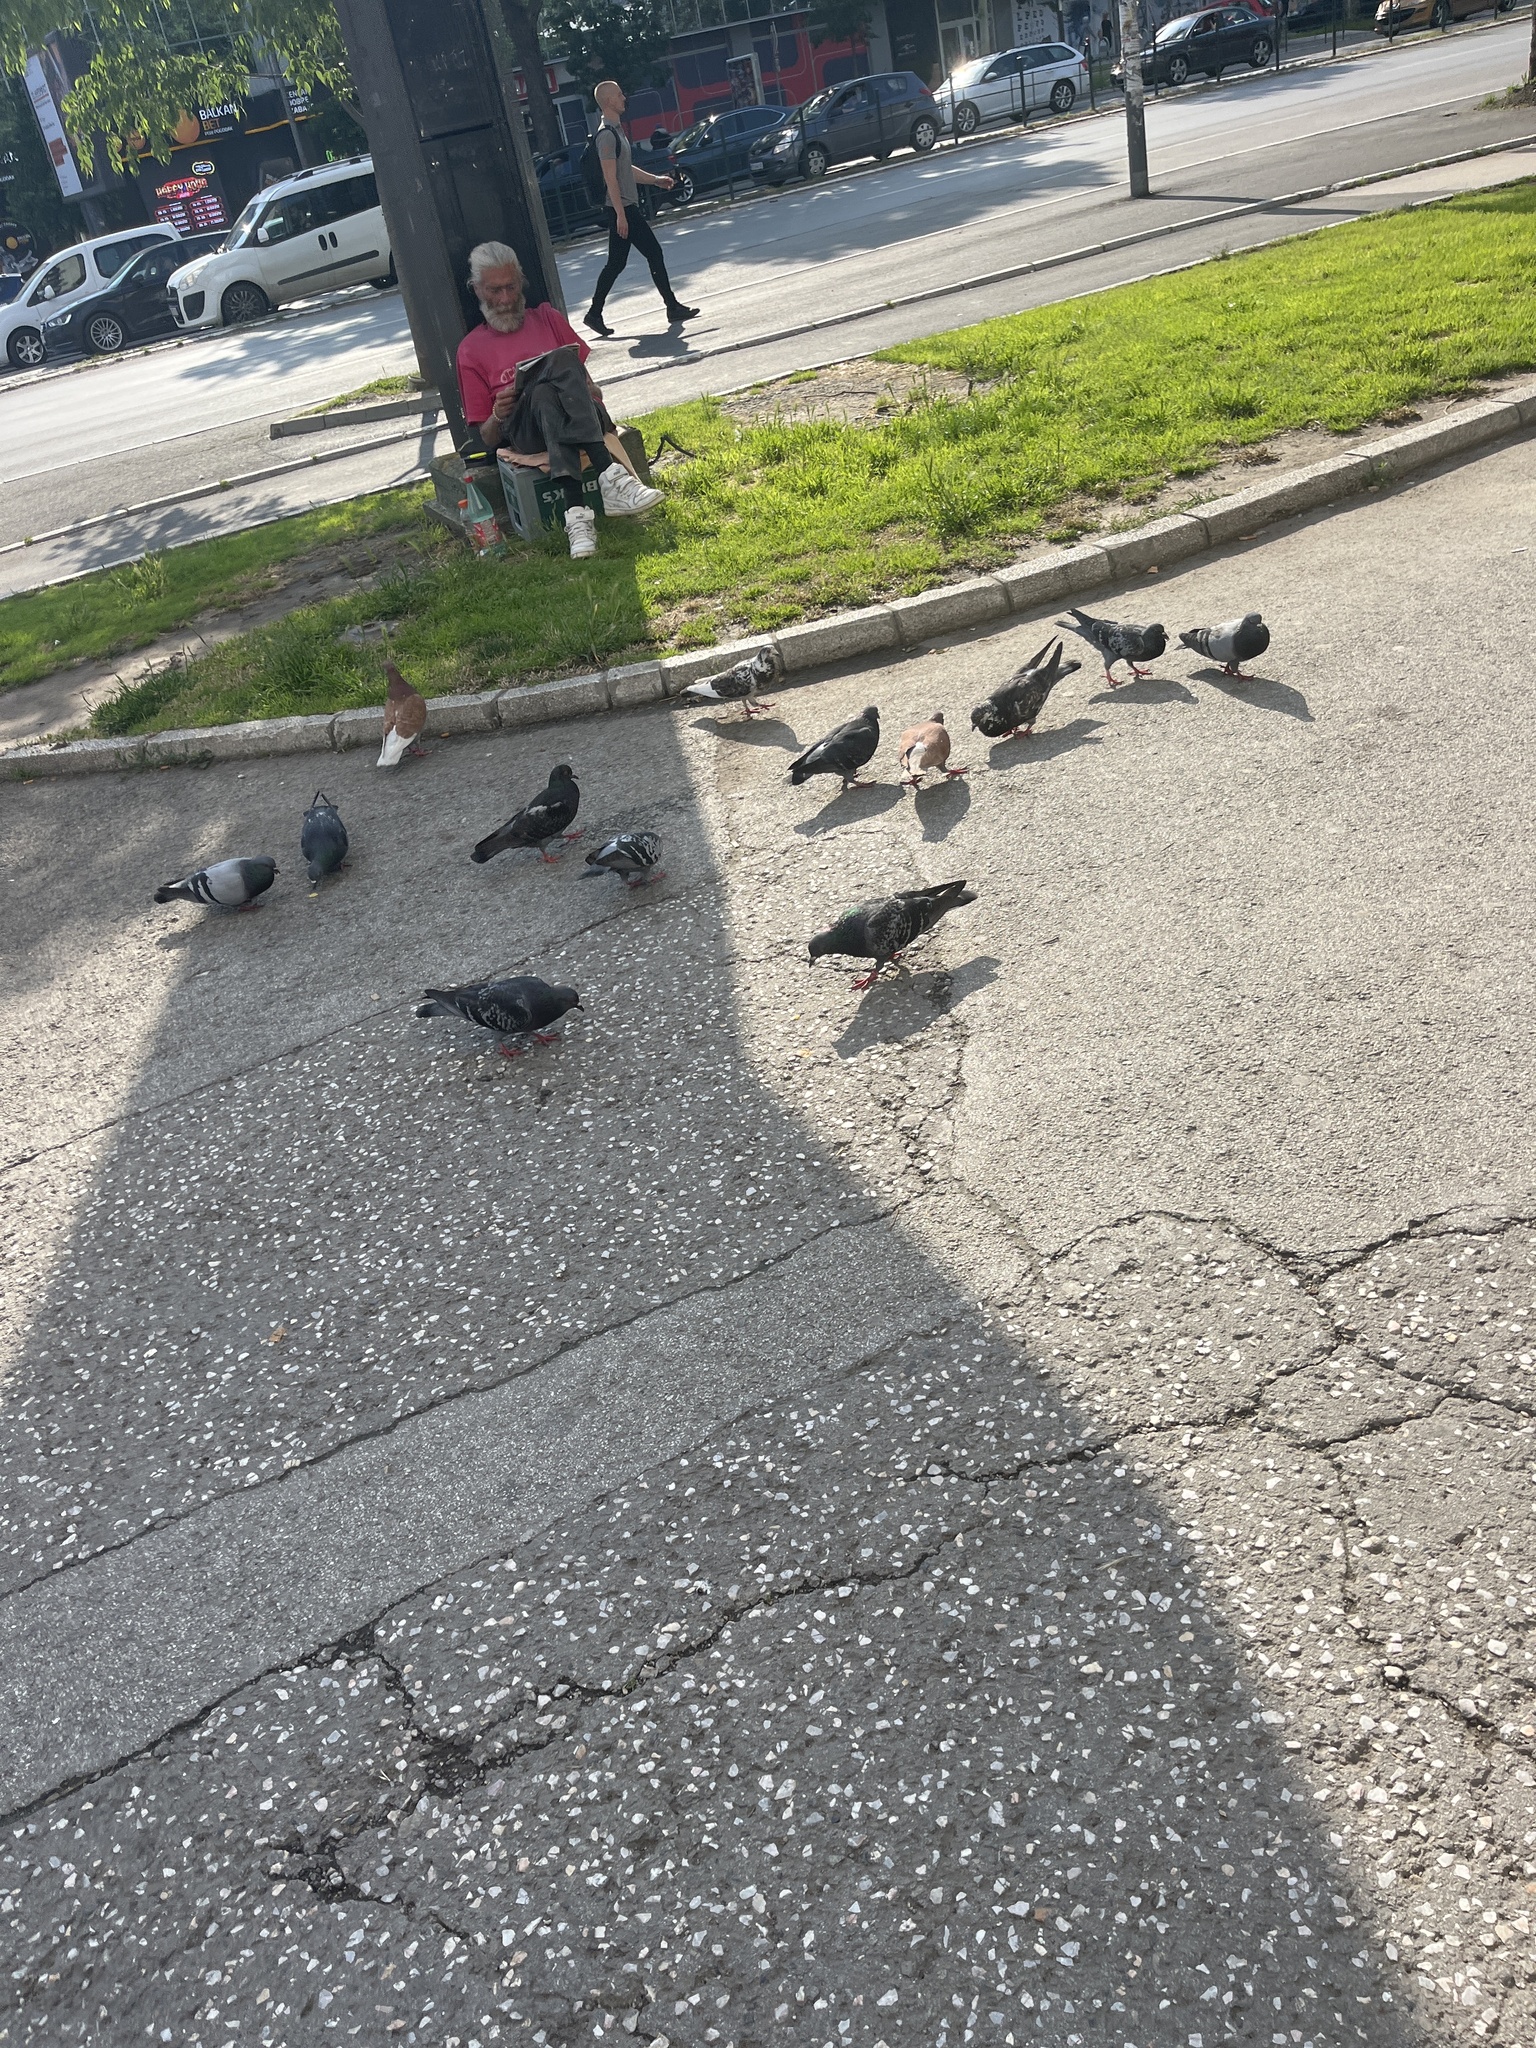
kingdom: Animalia
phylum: Chordata
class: Aves
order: Columbiformes
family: Columbidae
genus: Columba
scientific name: Columba livia
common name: Rock pigeon
